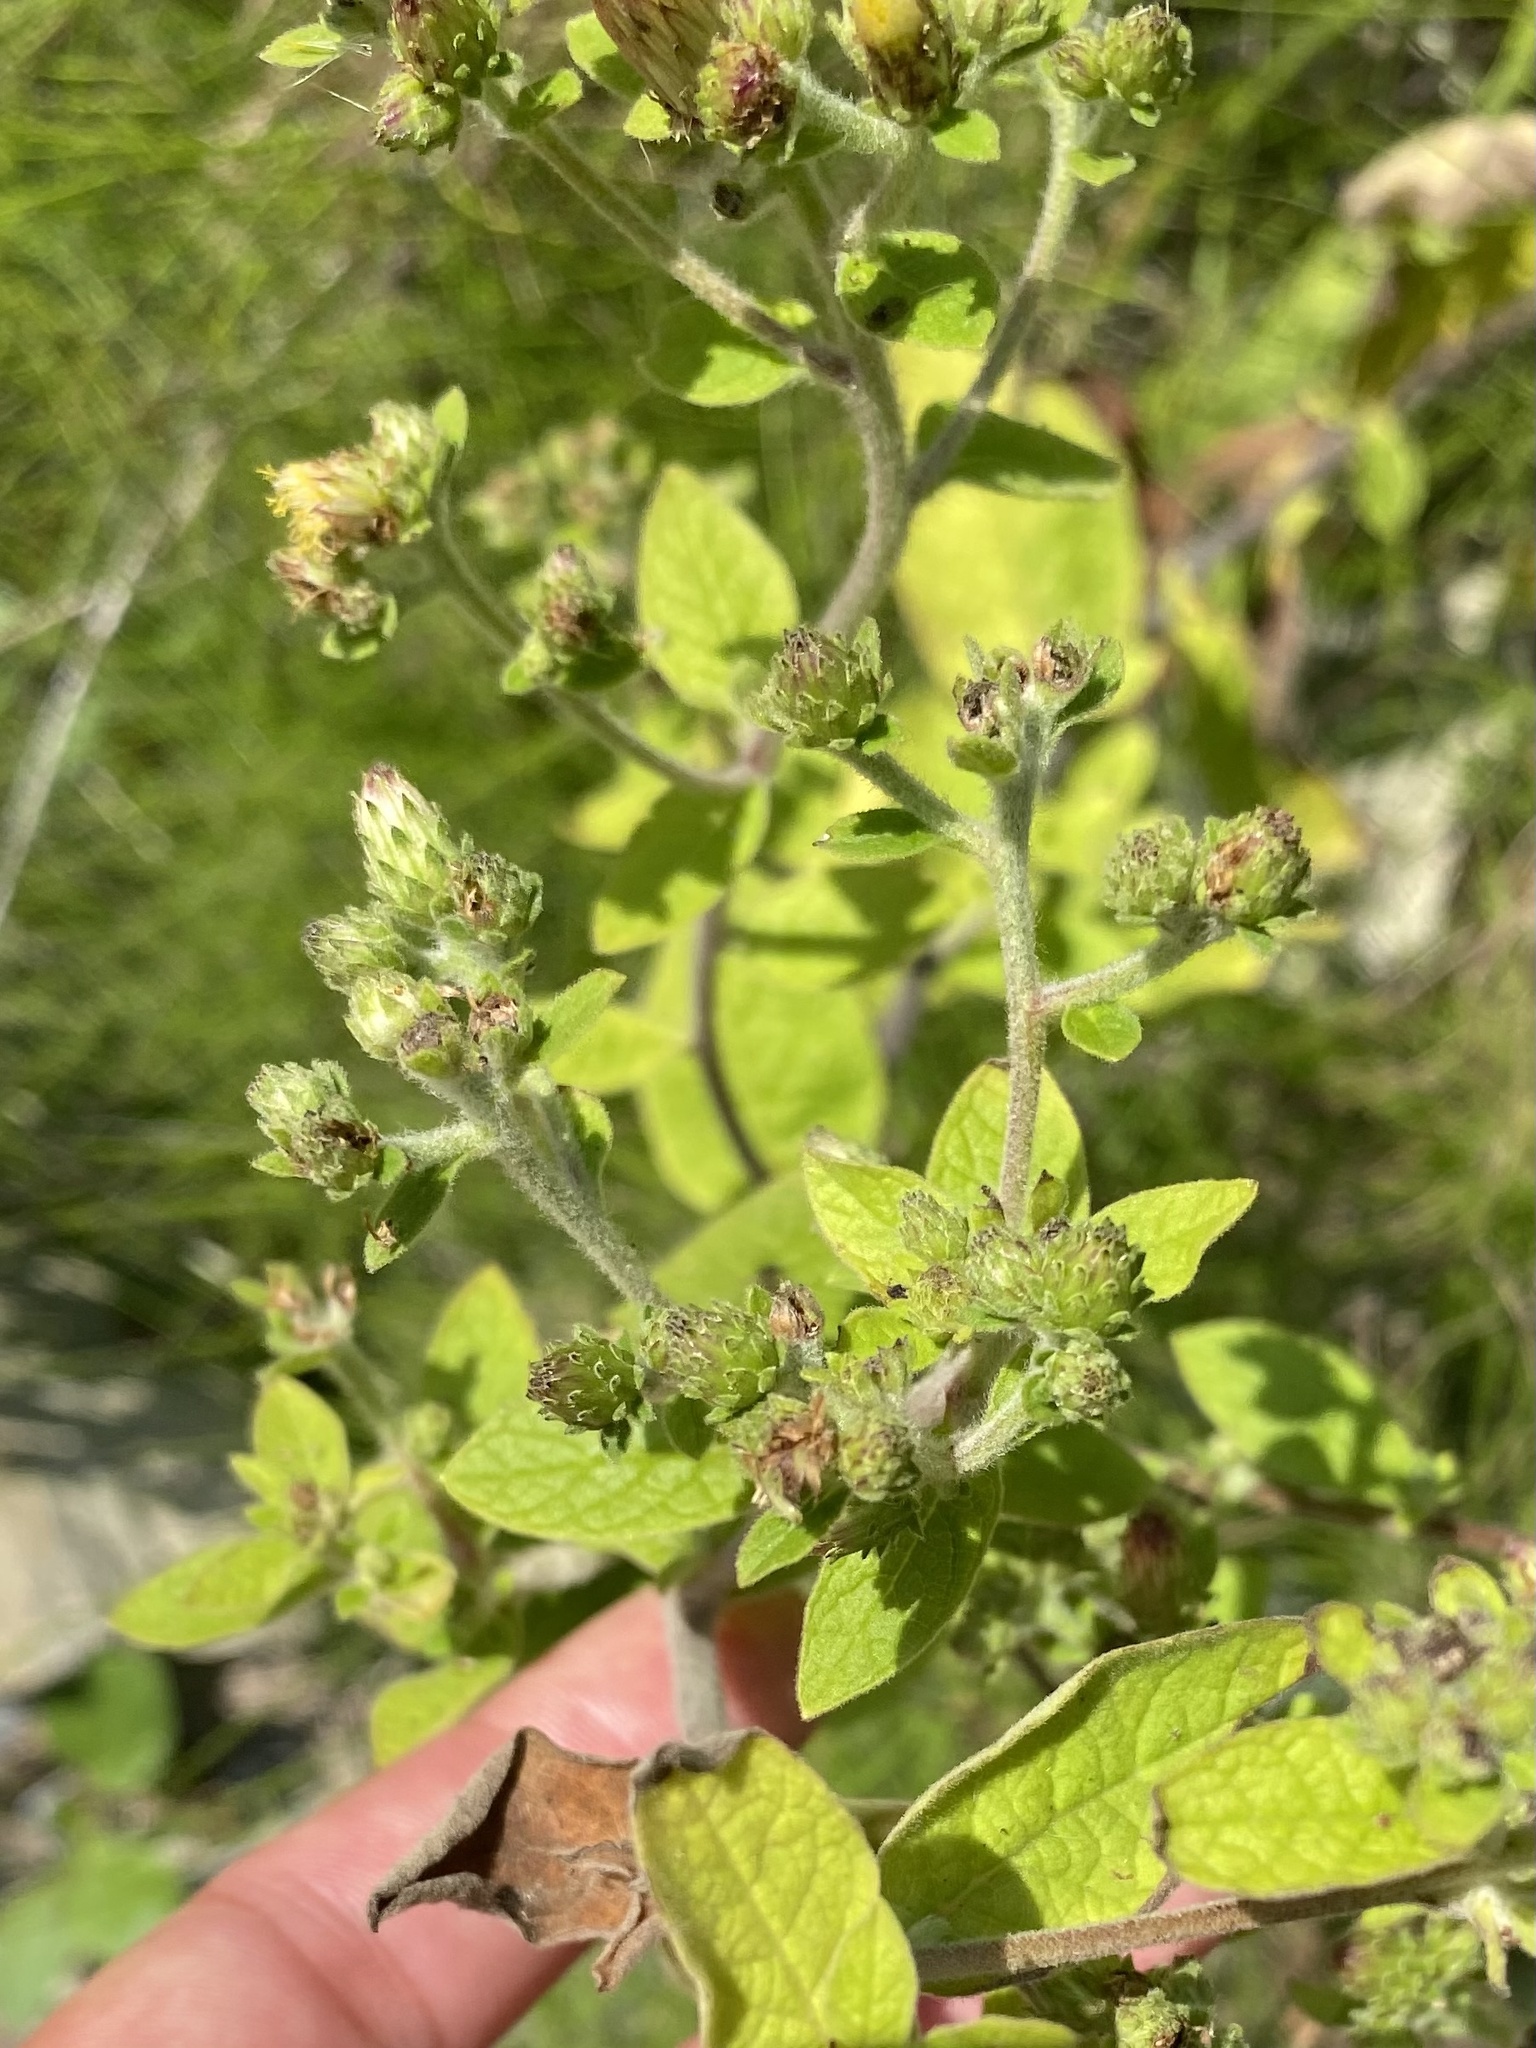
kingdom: Plantae
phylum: Tracheophyta
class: Magnoliopsida
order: Asterales
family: Asteraceae
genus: Pentanema
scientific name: Pentanema squarrosum
